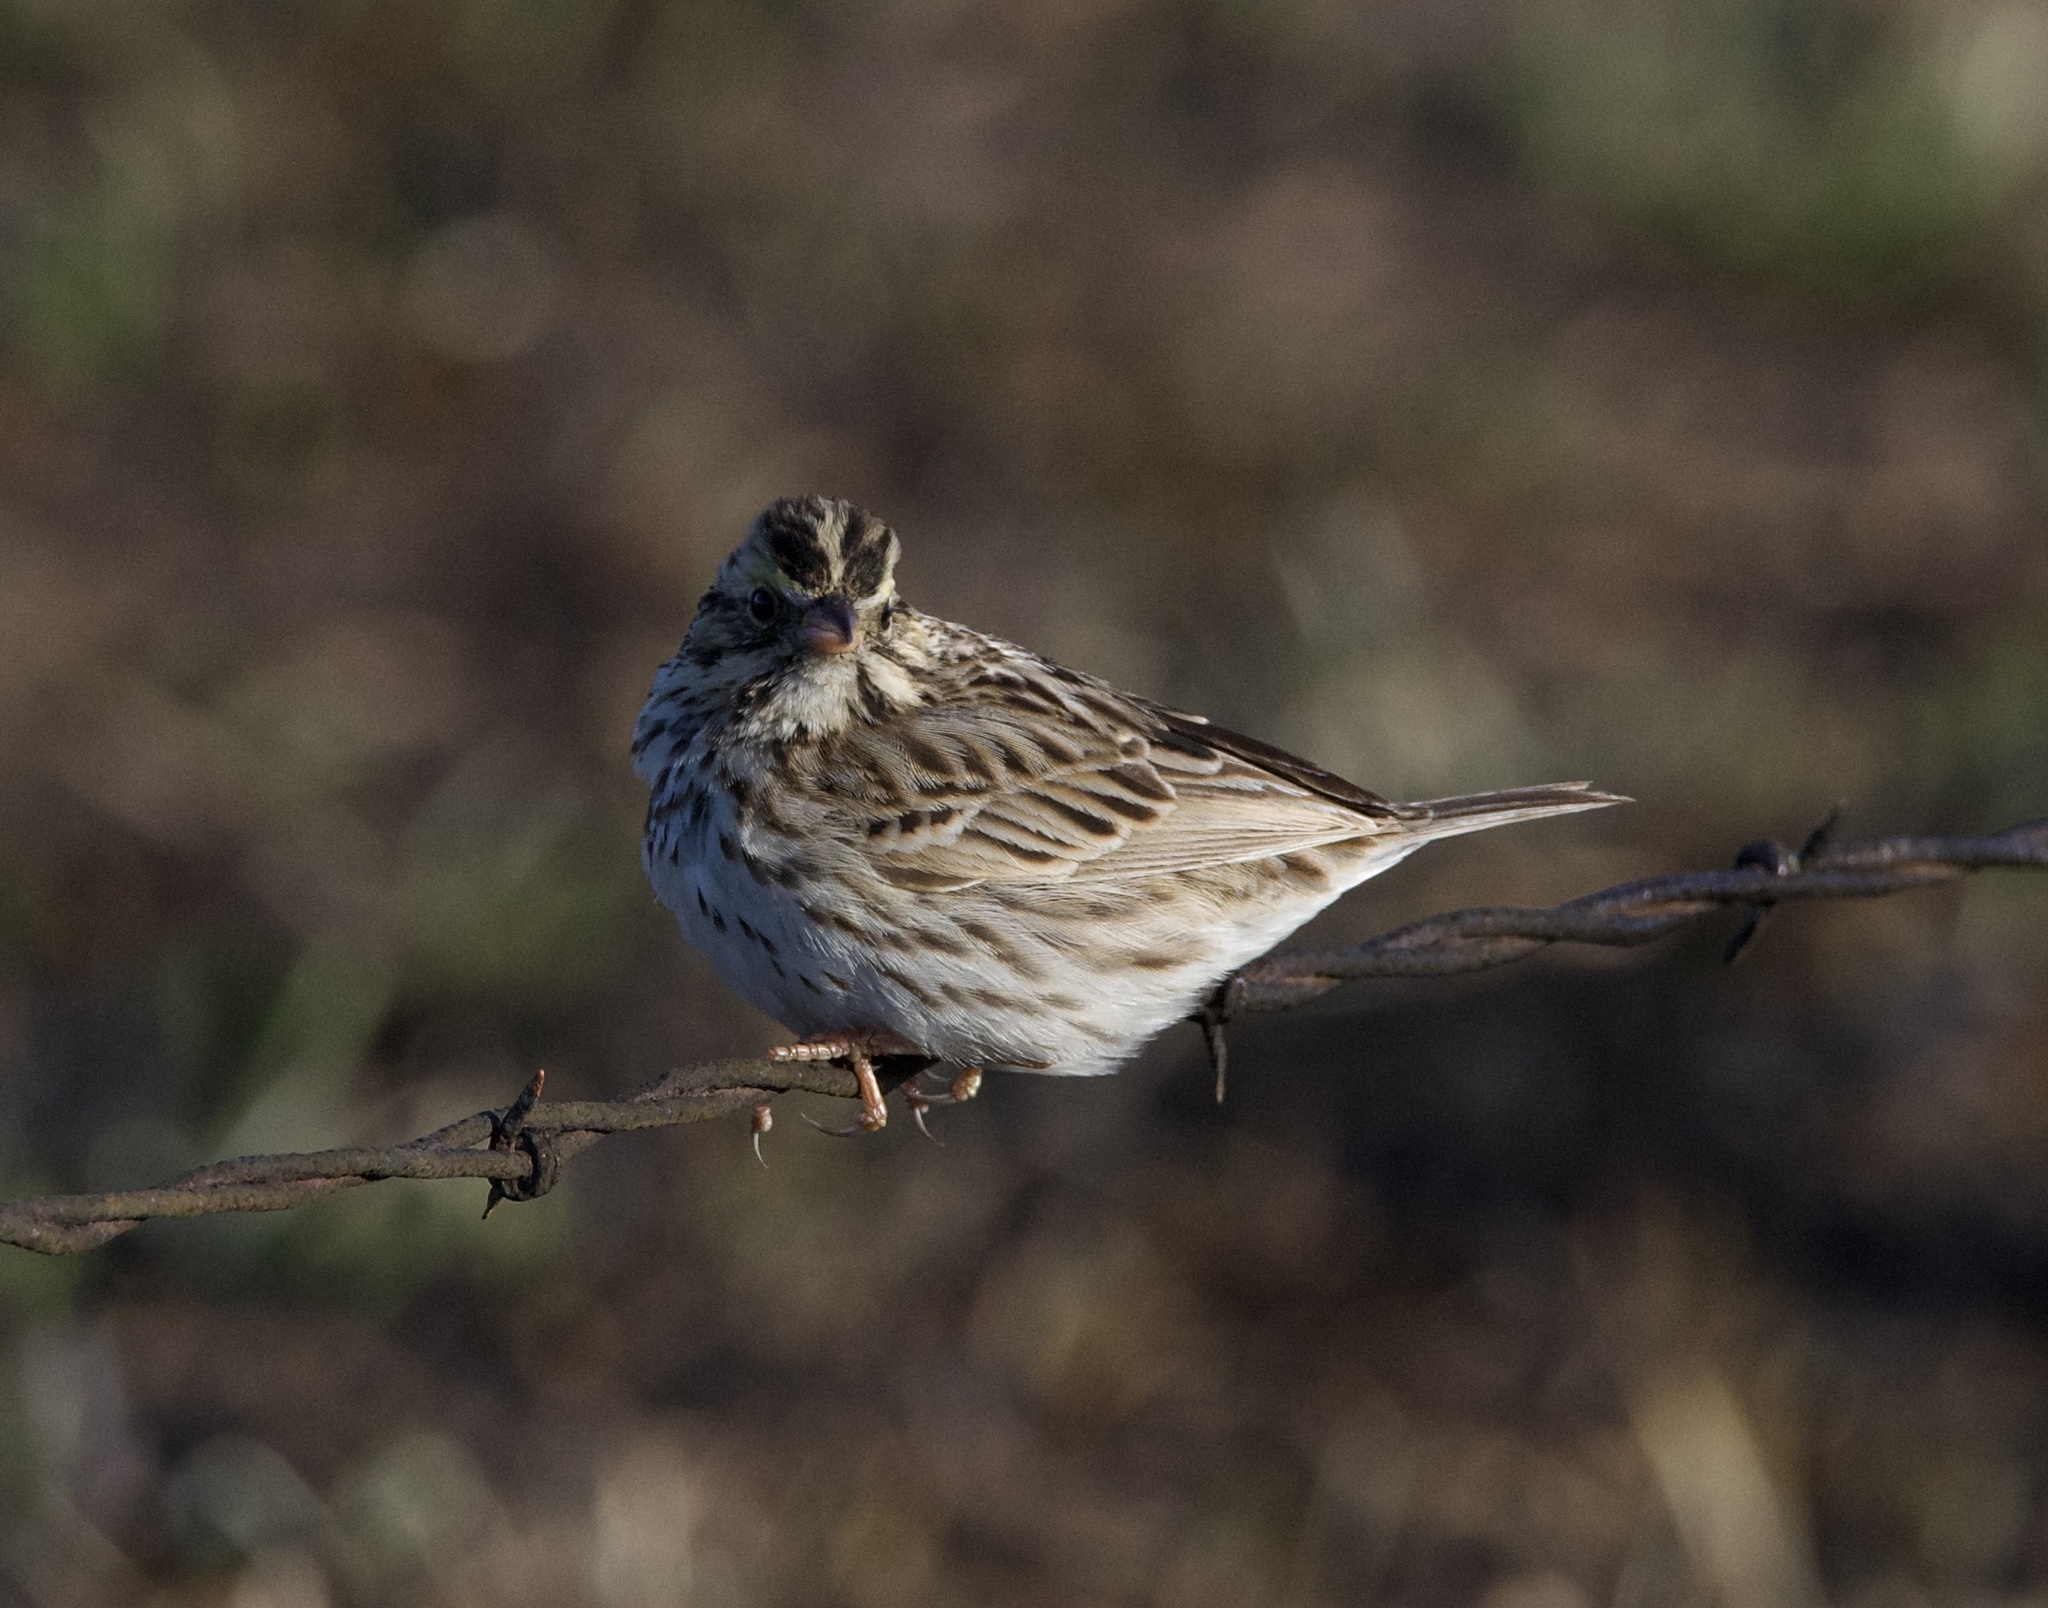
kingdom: Animalia
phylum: Chordata
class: Aves
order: Passeriformes
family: Passerellidae
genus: Passerculus
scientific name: Passerculus sandwichensis
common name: Savannah sparrow
